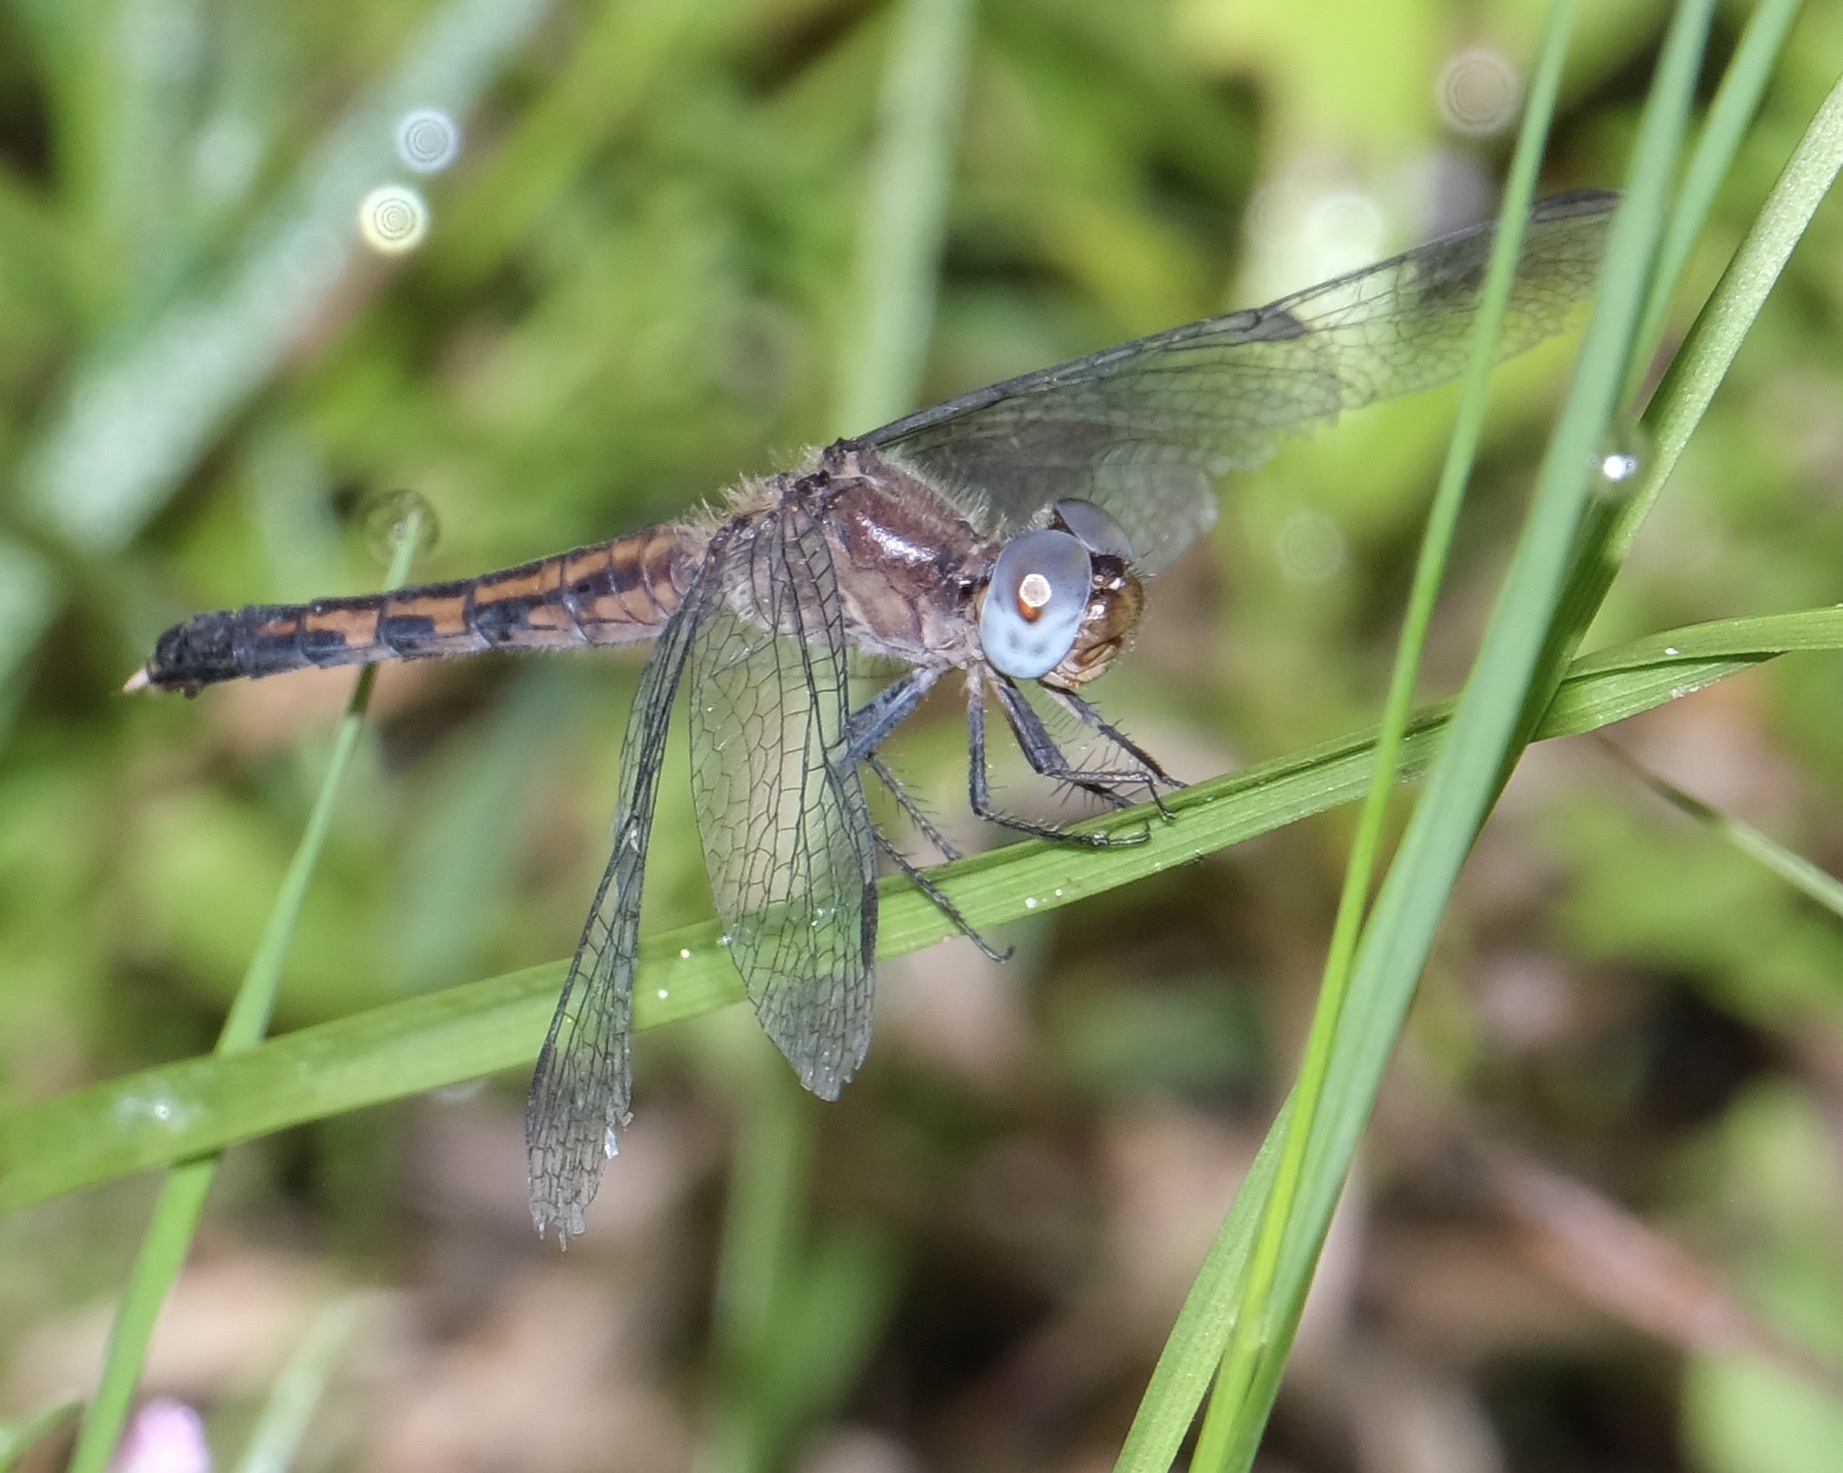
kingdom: Animalia
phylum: Arthropoda
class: Insecta
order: Odonata
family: Libellulidae
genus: Erythrodiplax
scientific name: Erythrodiplax minuscula
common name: Little blue dragonlet
